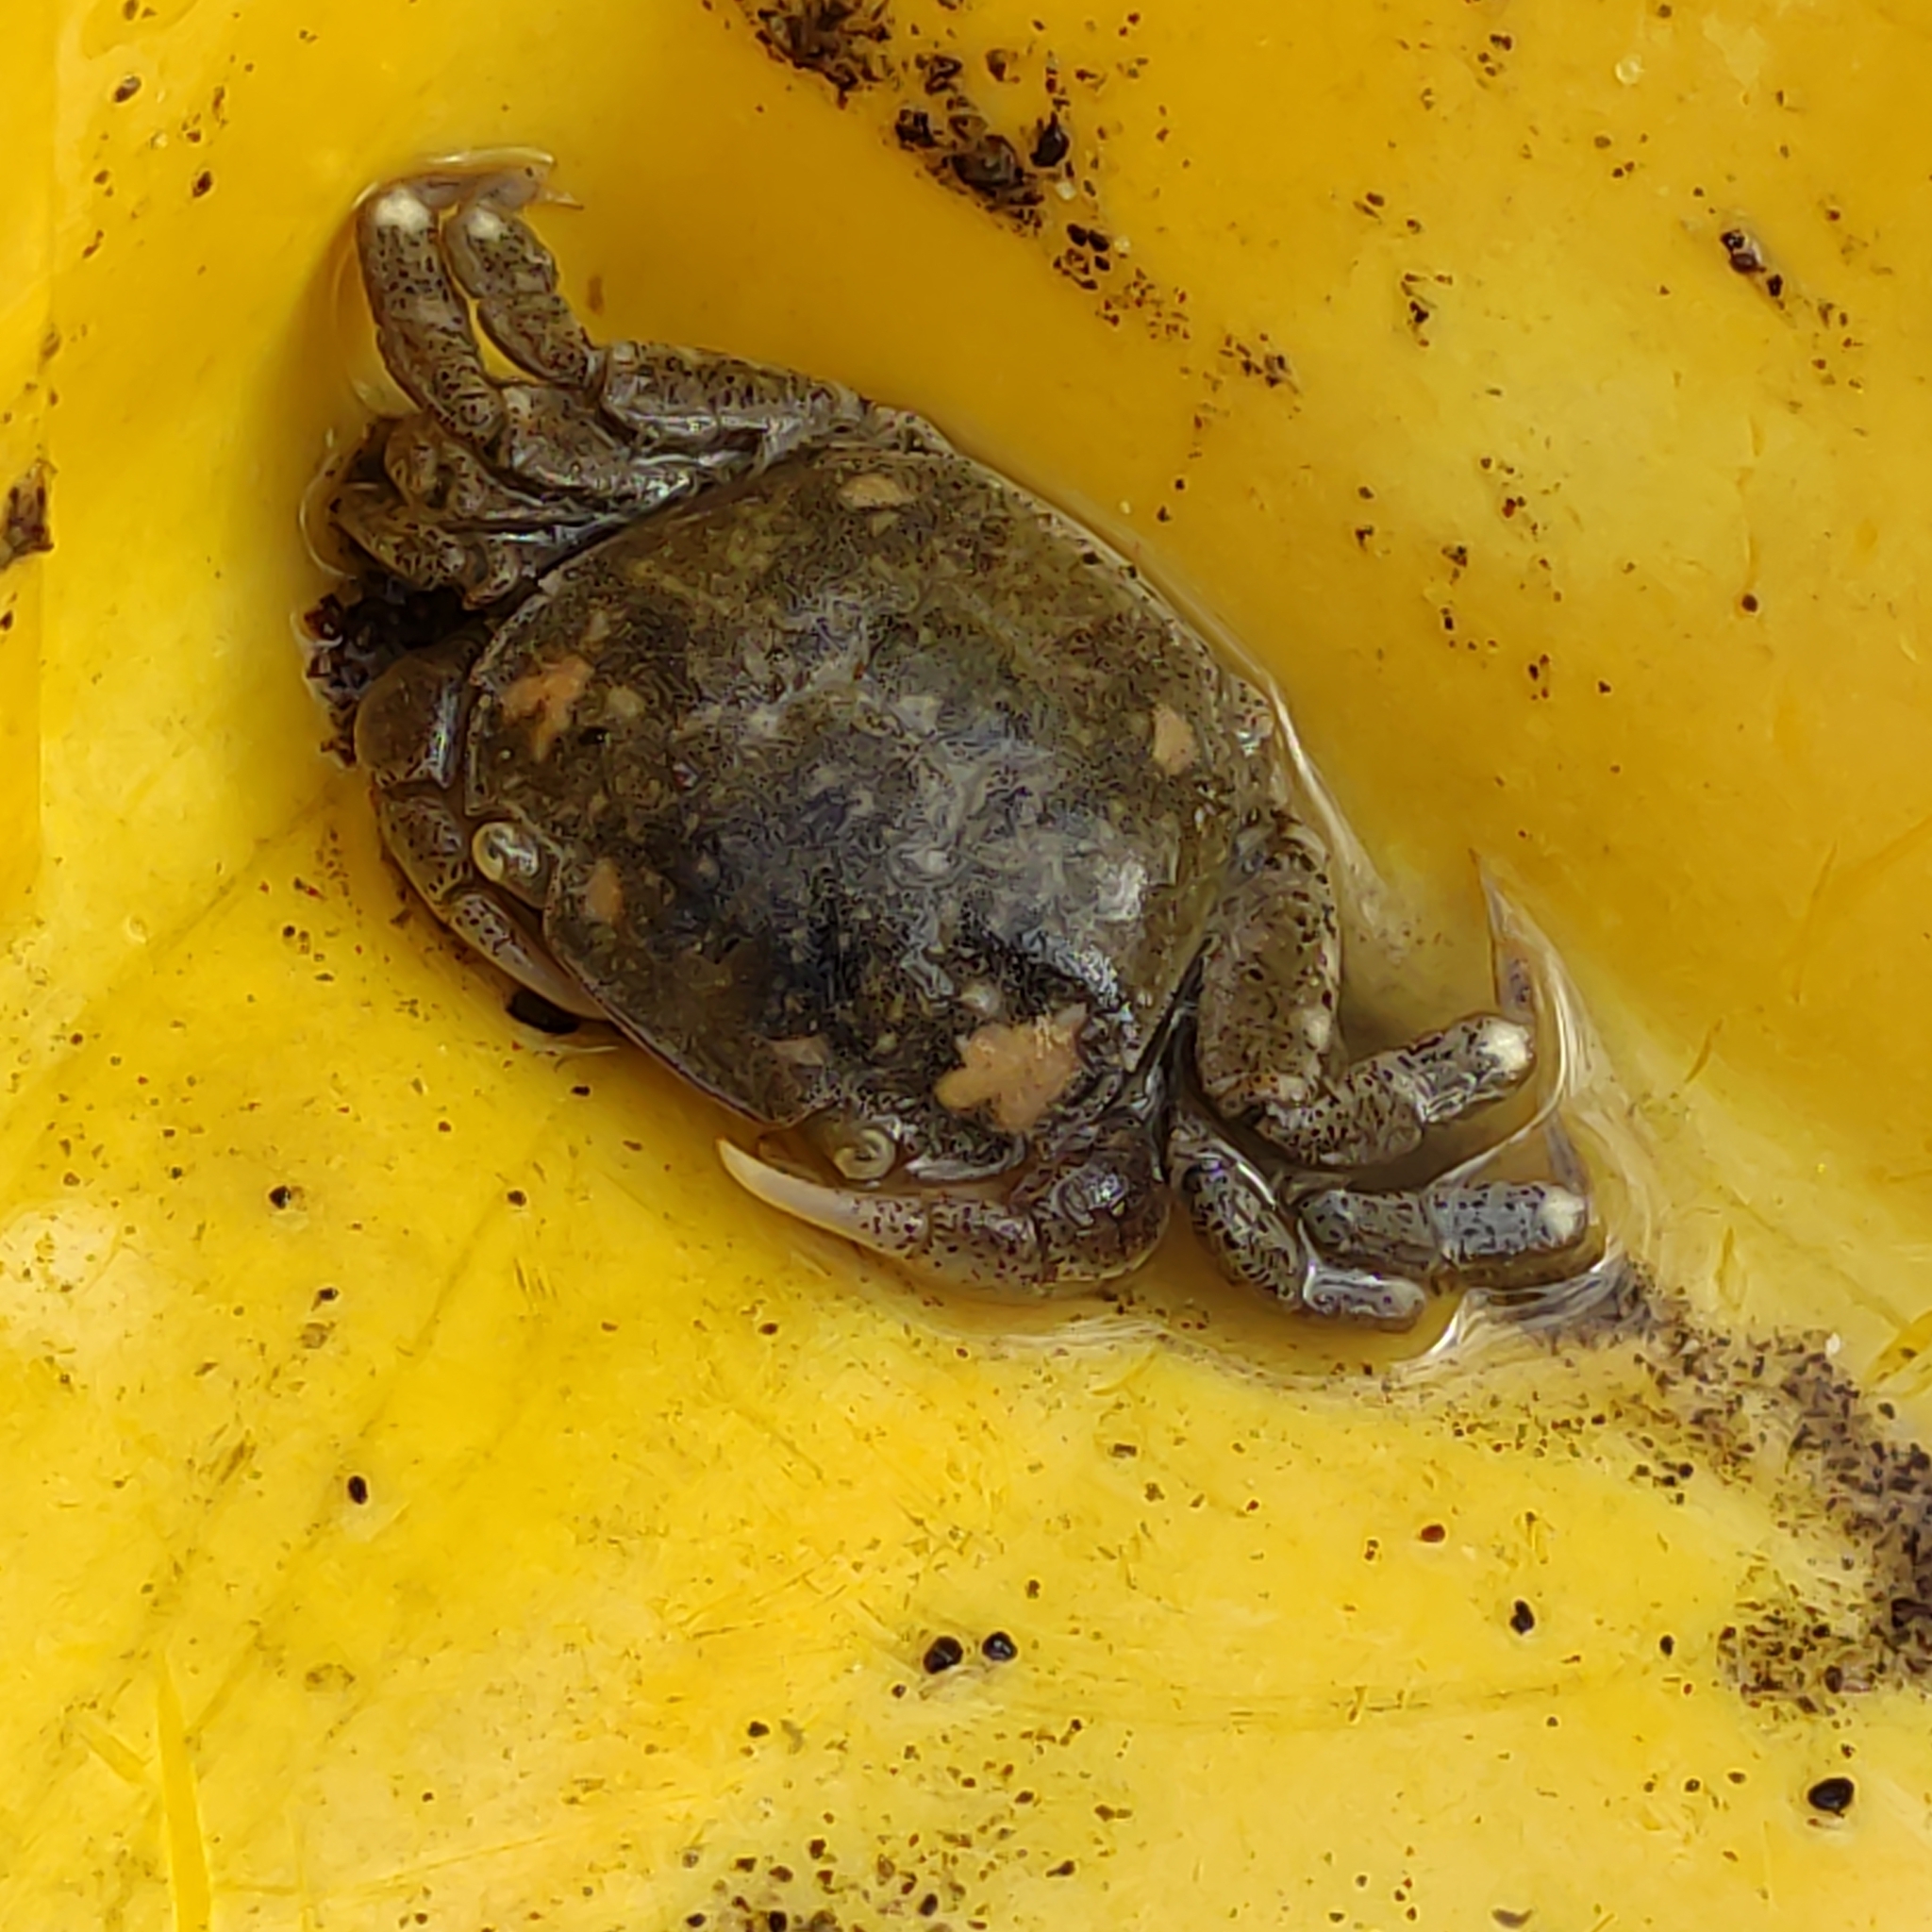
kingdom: Animalia
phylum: Arthropoda
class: Malacostraca
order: Decapoda
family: Varunidae
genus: Hemigrapsus
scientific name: Hemigrapsus crenulatus
